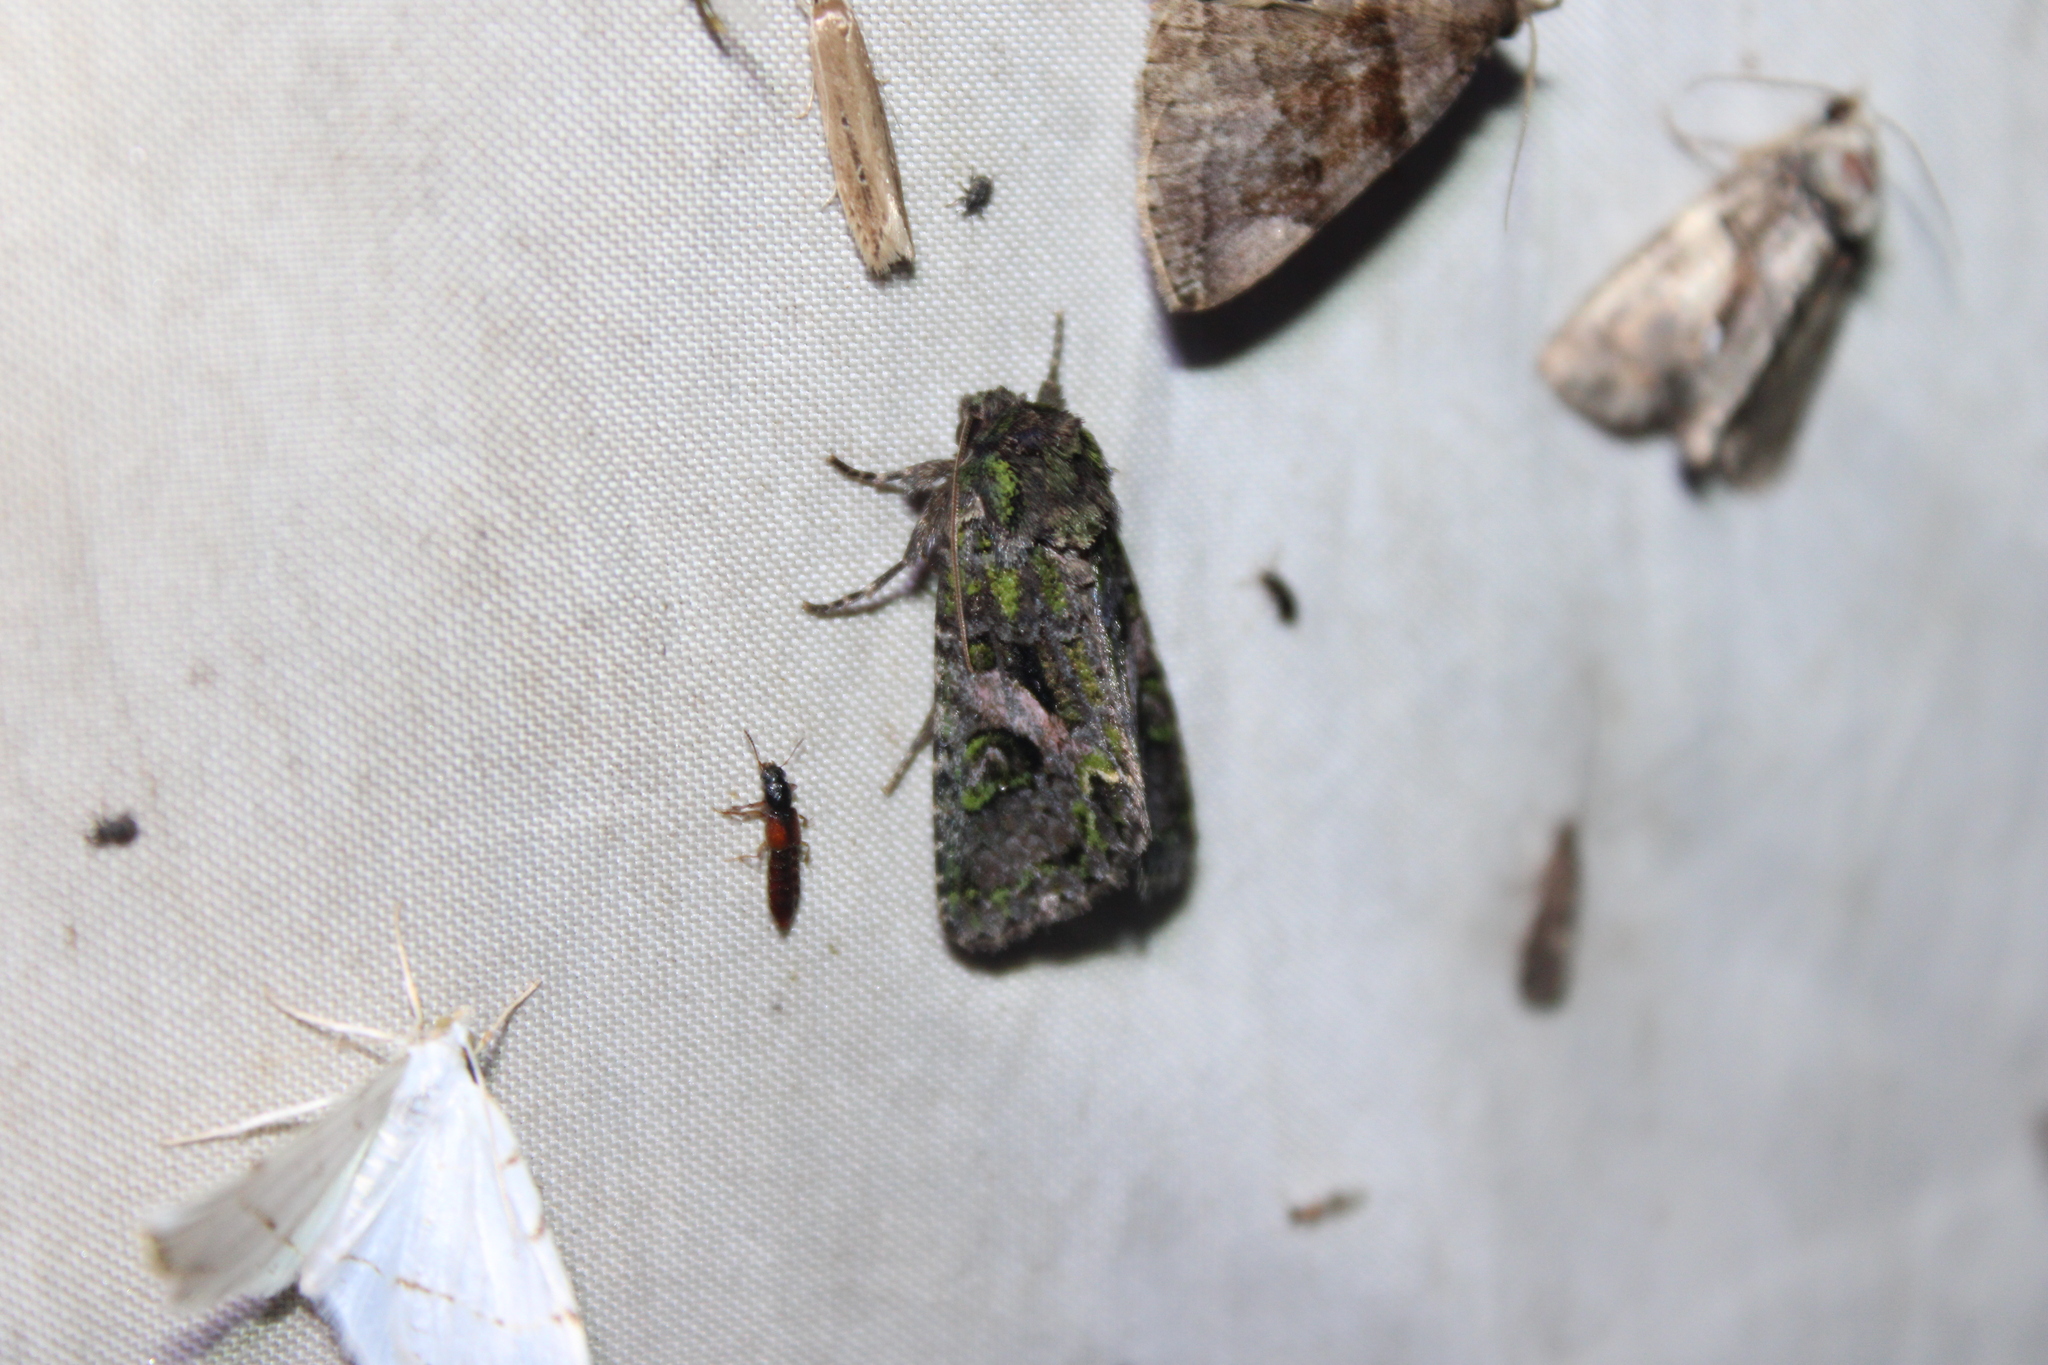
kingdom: Animalia
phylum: Arthropoda
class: Insecta
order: Lepidoptera
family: Noctuidae
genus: Trachea
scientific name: Trachea delicata
